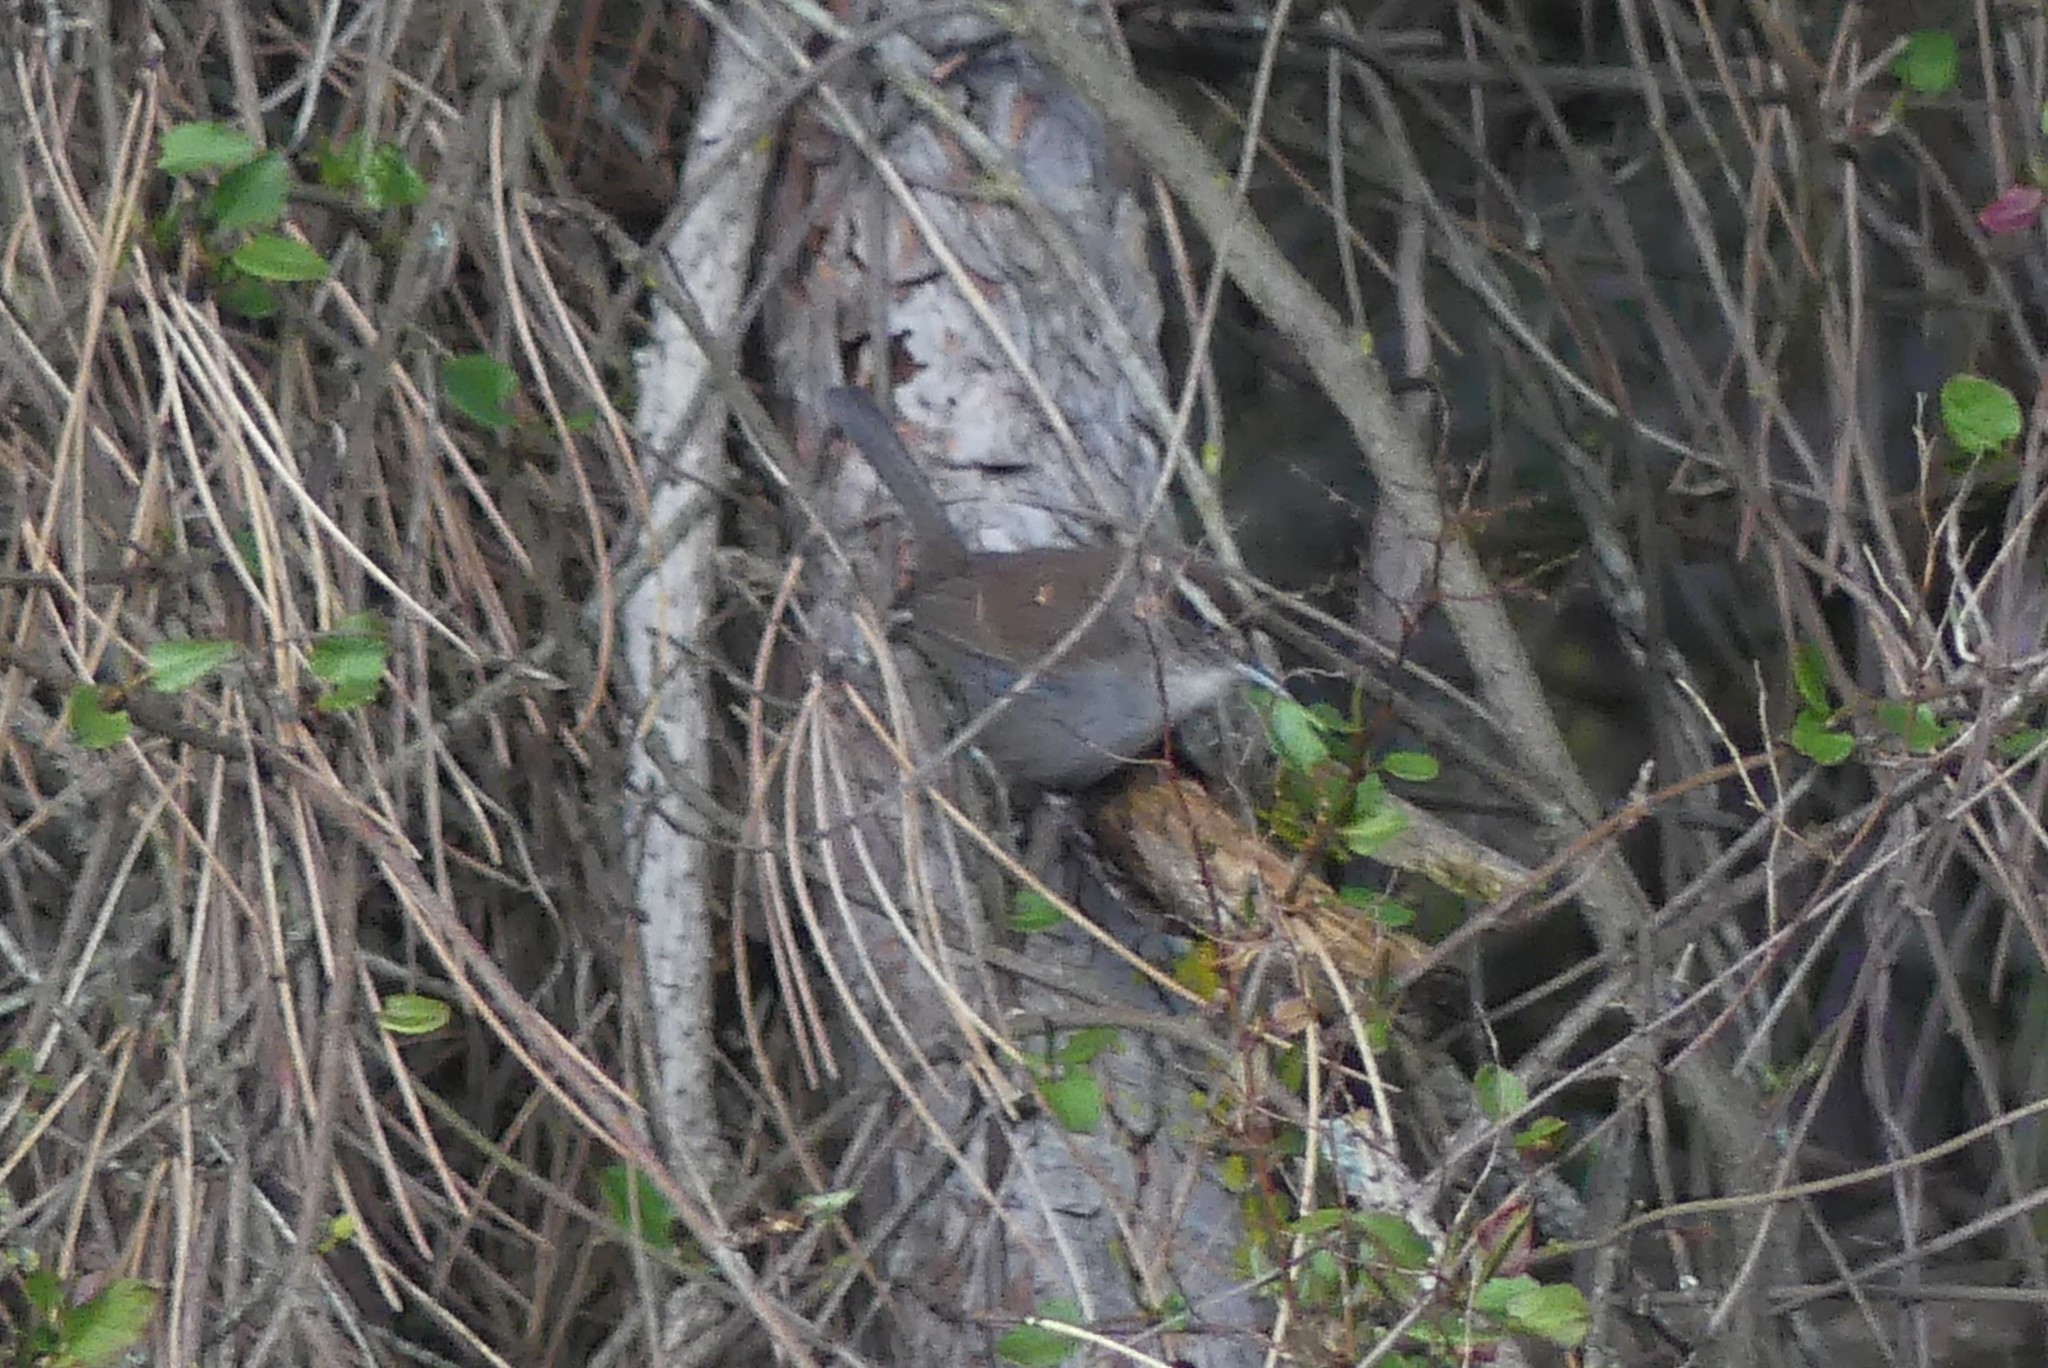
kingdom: Animalia
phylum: Chordata
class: Aves
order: Passeriformes
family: Troglodytidae
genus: Thryomanes
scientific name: Thryomanes bewickii
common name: Bewick's wren
